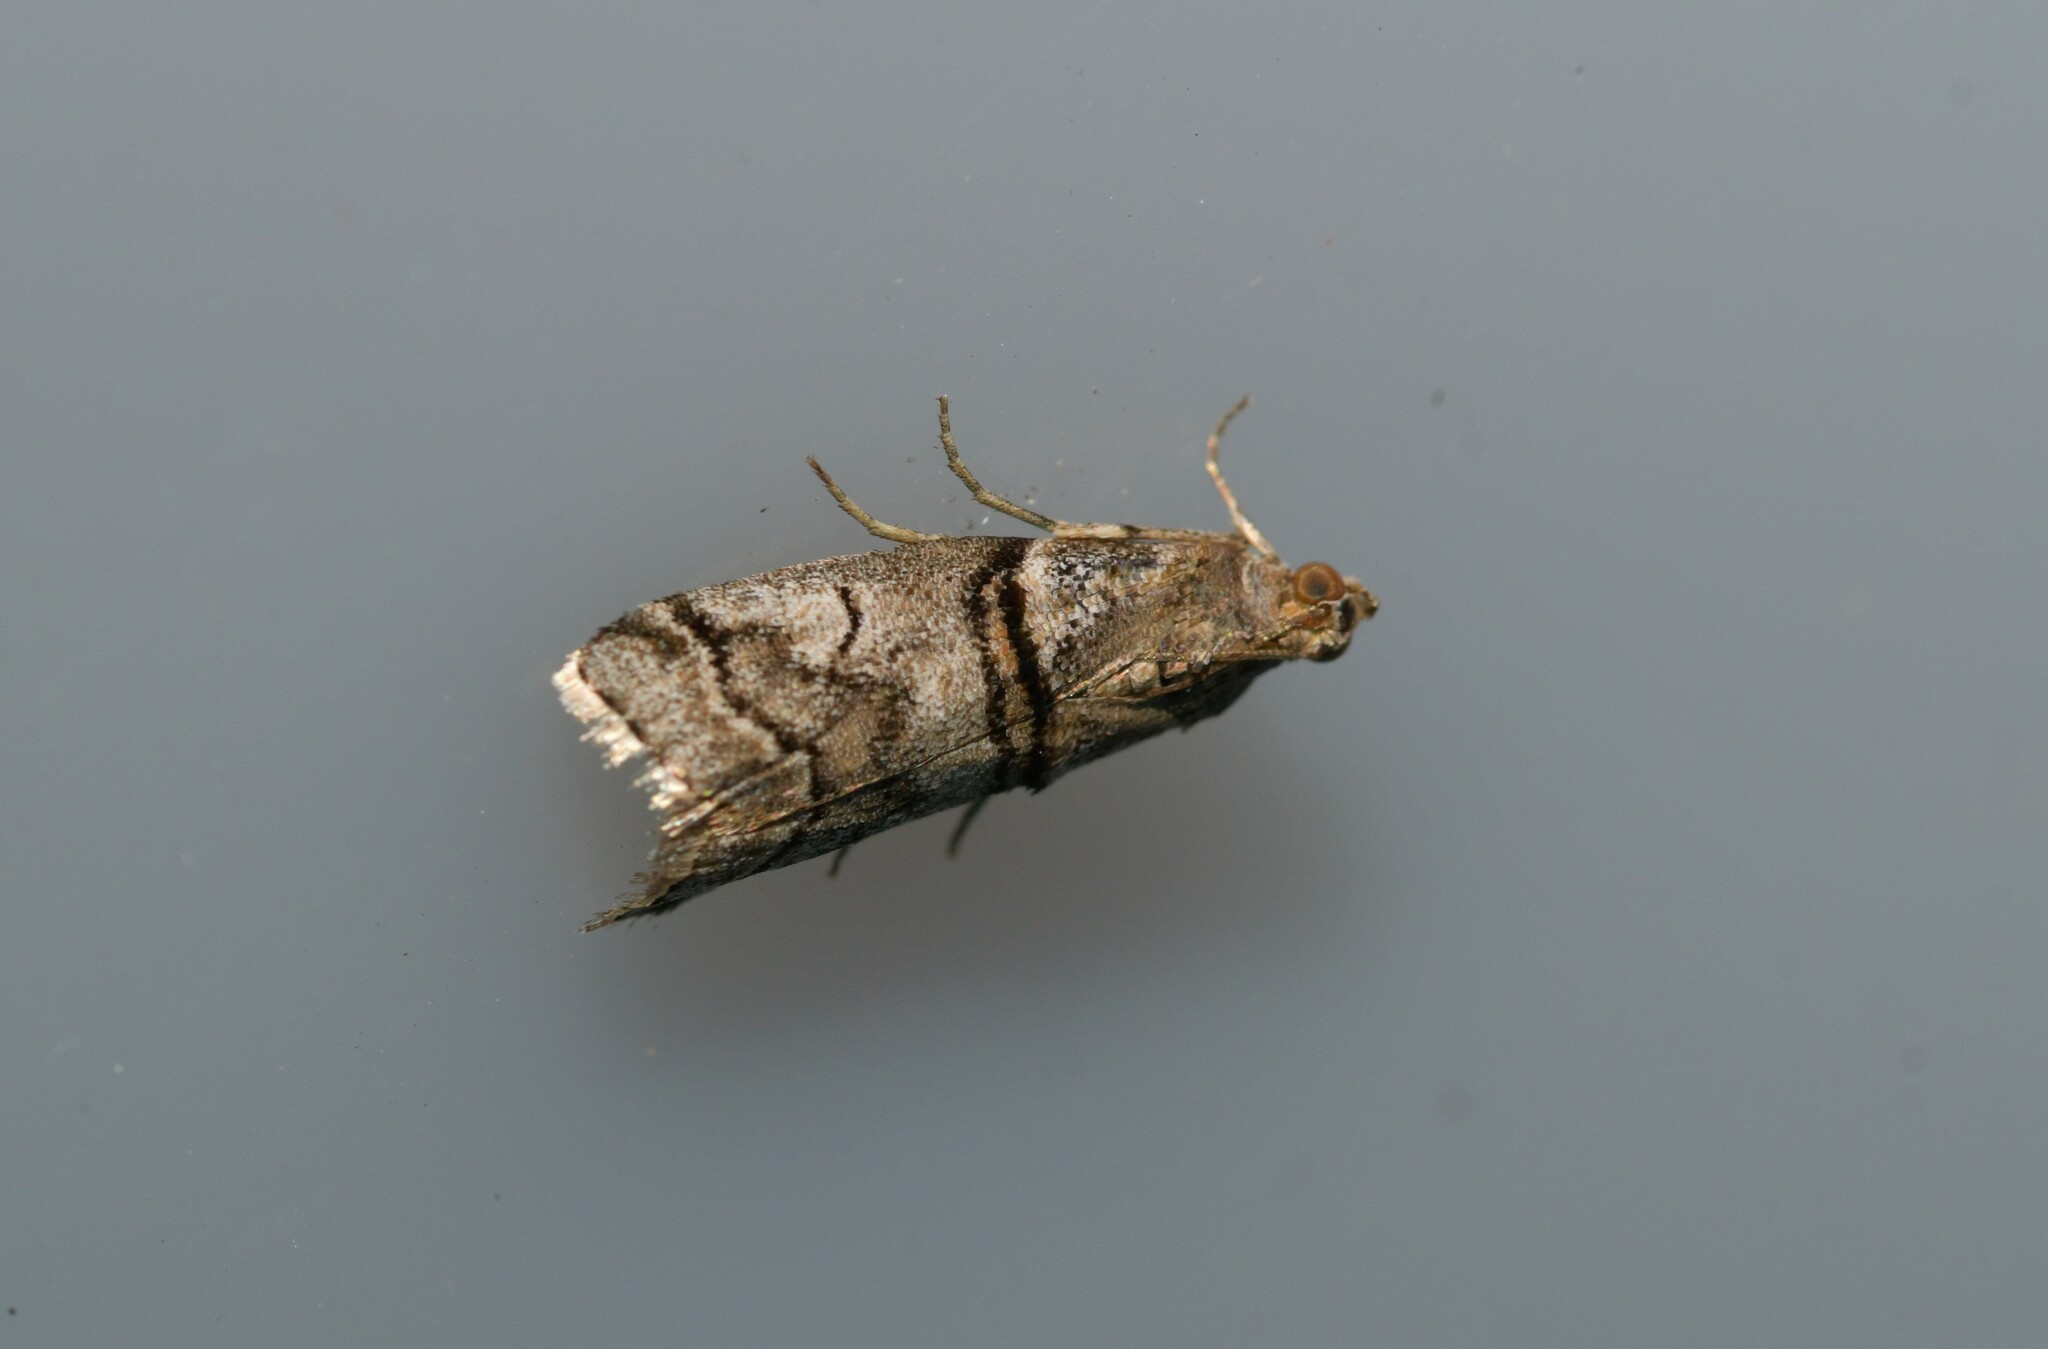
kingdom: Animalia
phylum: Arthropoda
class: Insecta
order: Lepidoptera
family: Pyralidae
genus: Acrobasis
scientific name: Acrobasis romanella
